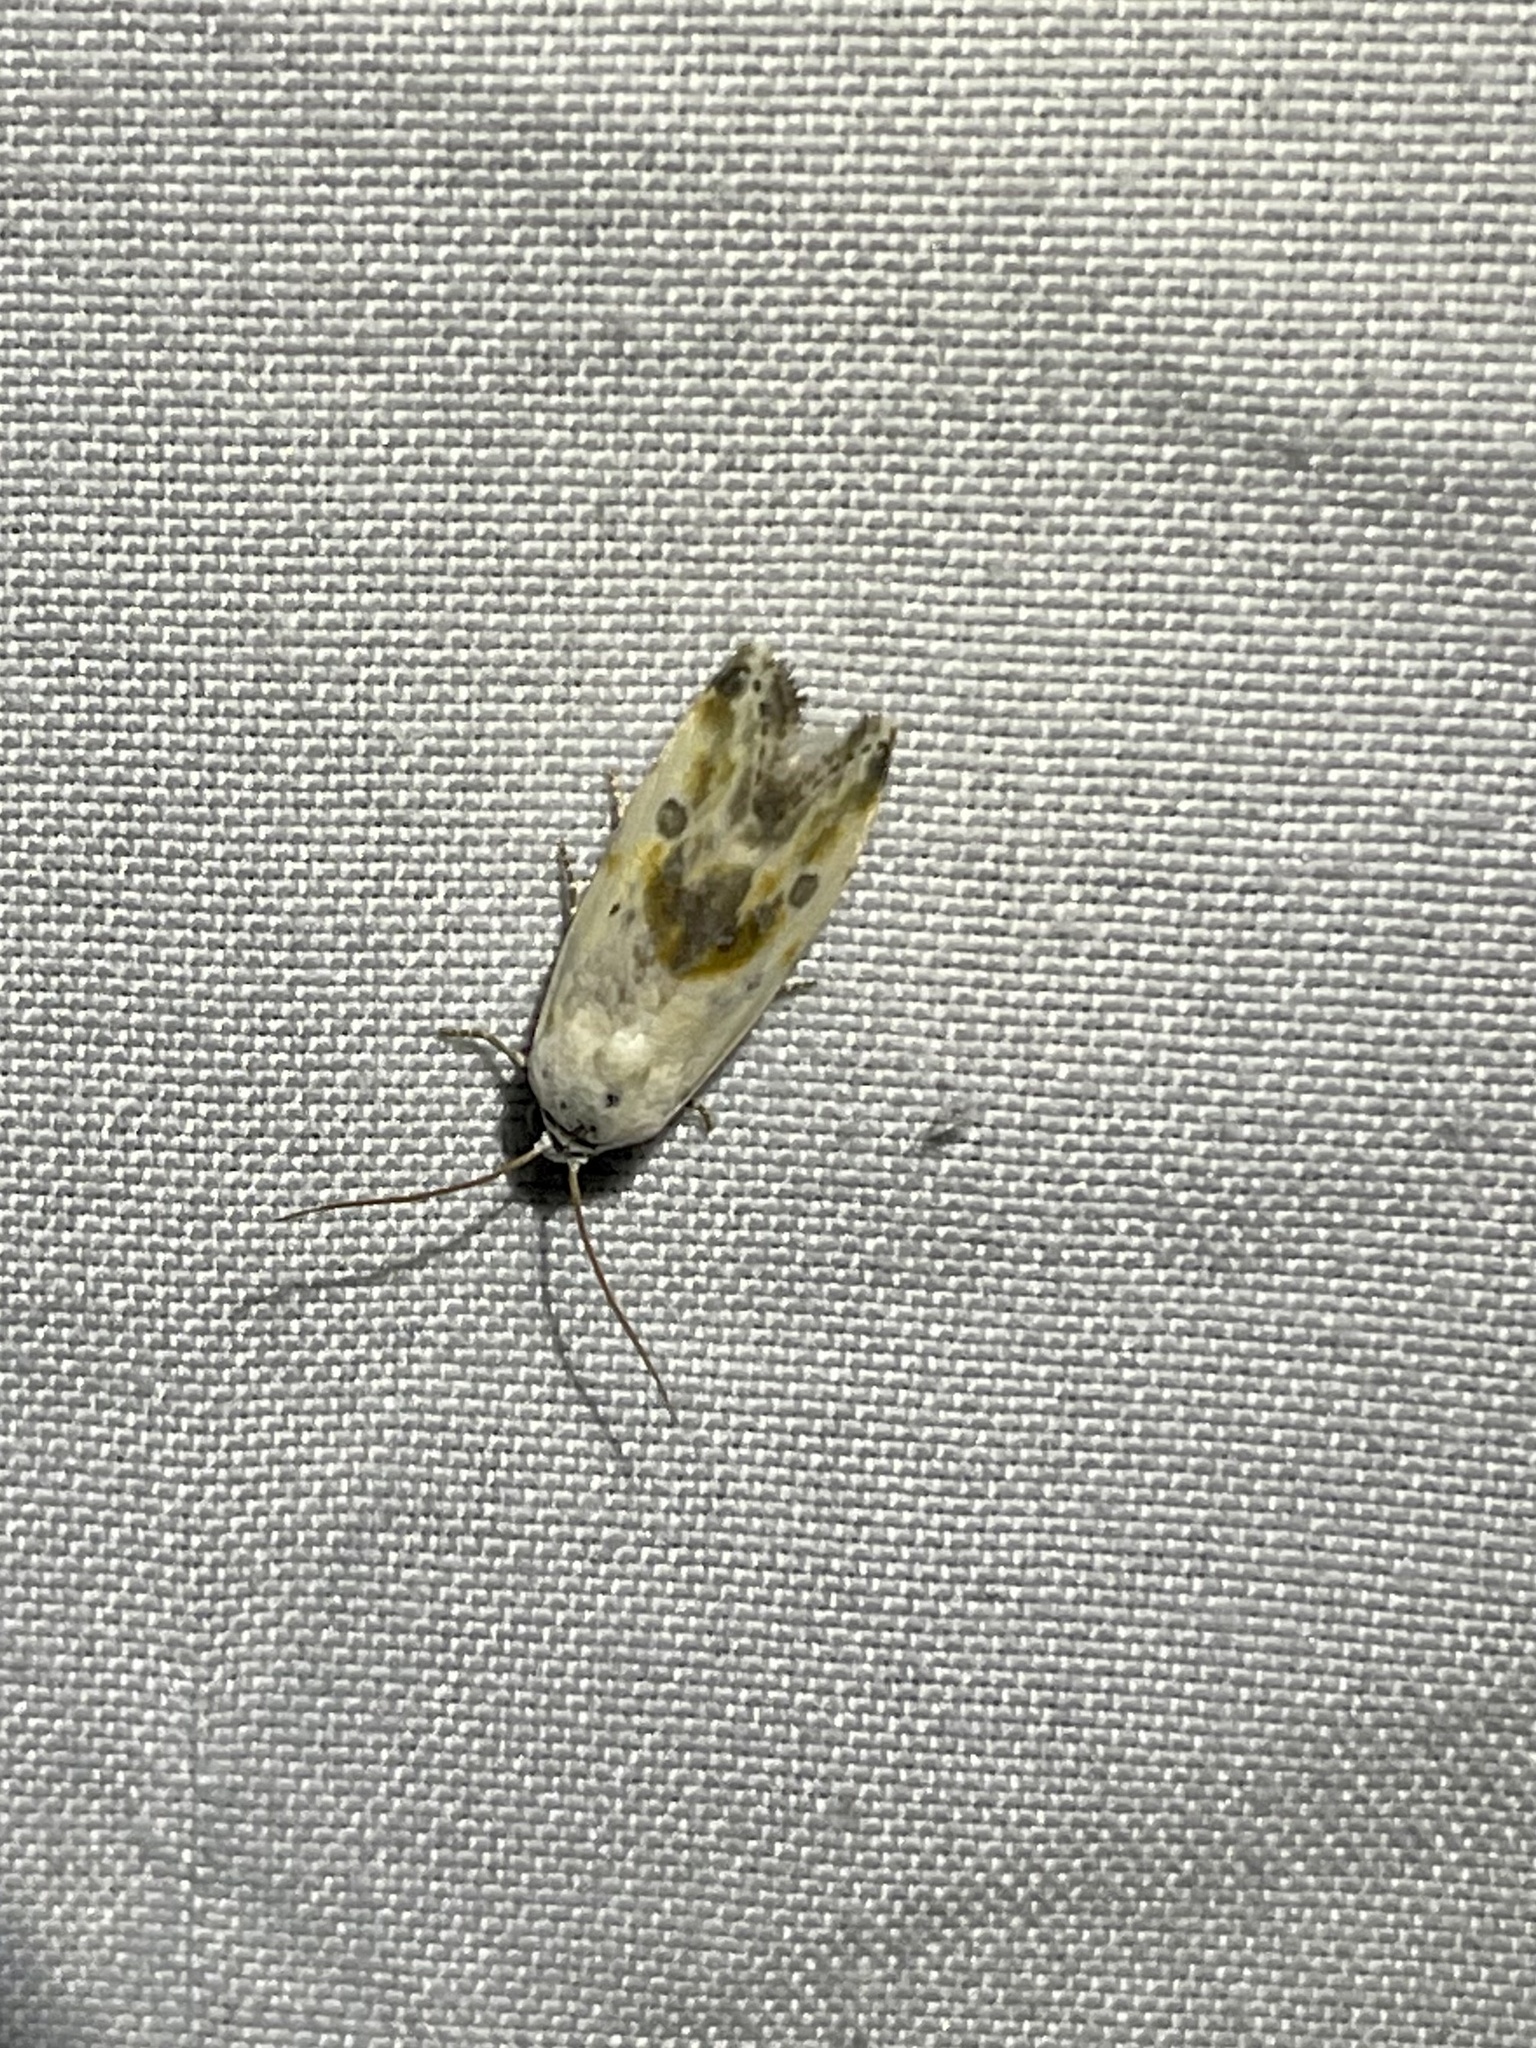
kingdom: Animalia
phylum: Arthropoda
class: Insecta
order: Lepidoptera
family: Noctuidae
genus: Acontia
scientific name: Acontia candefacta
